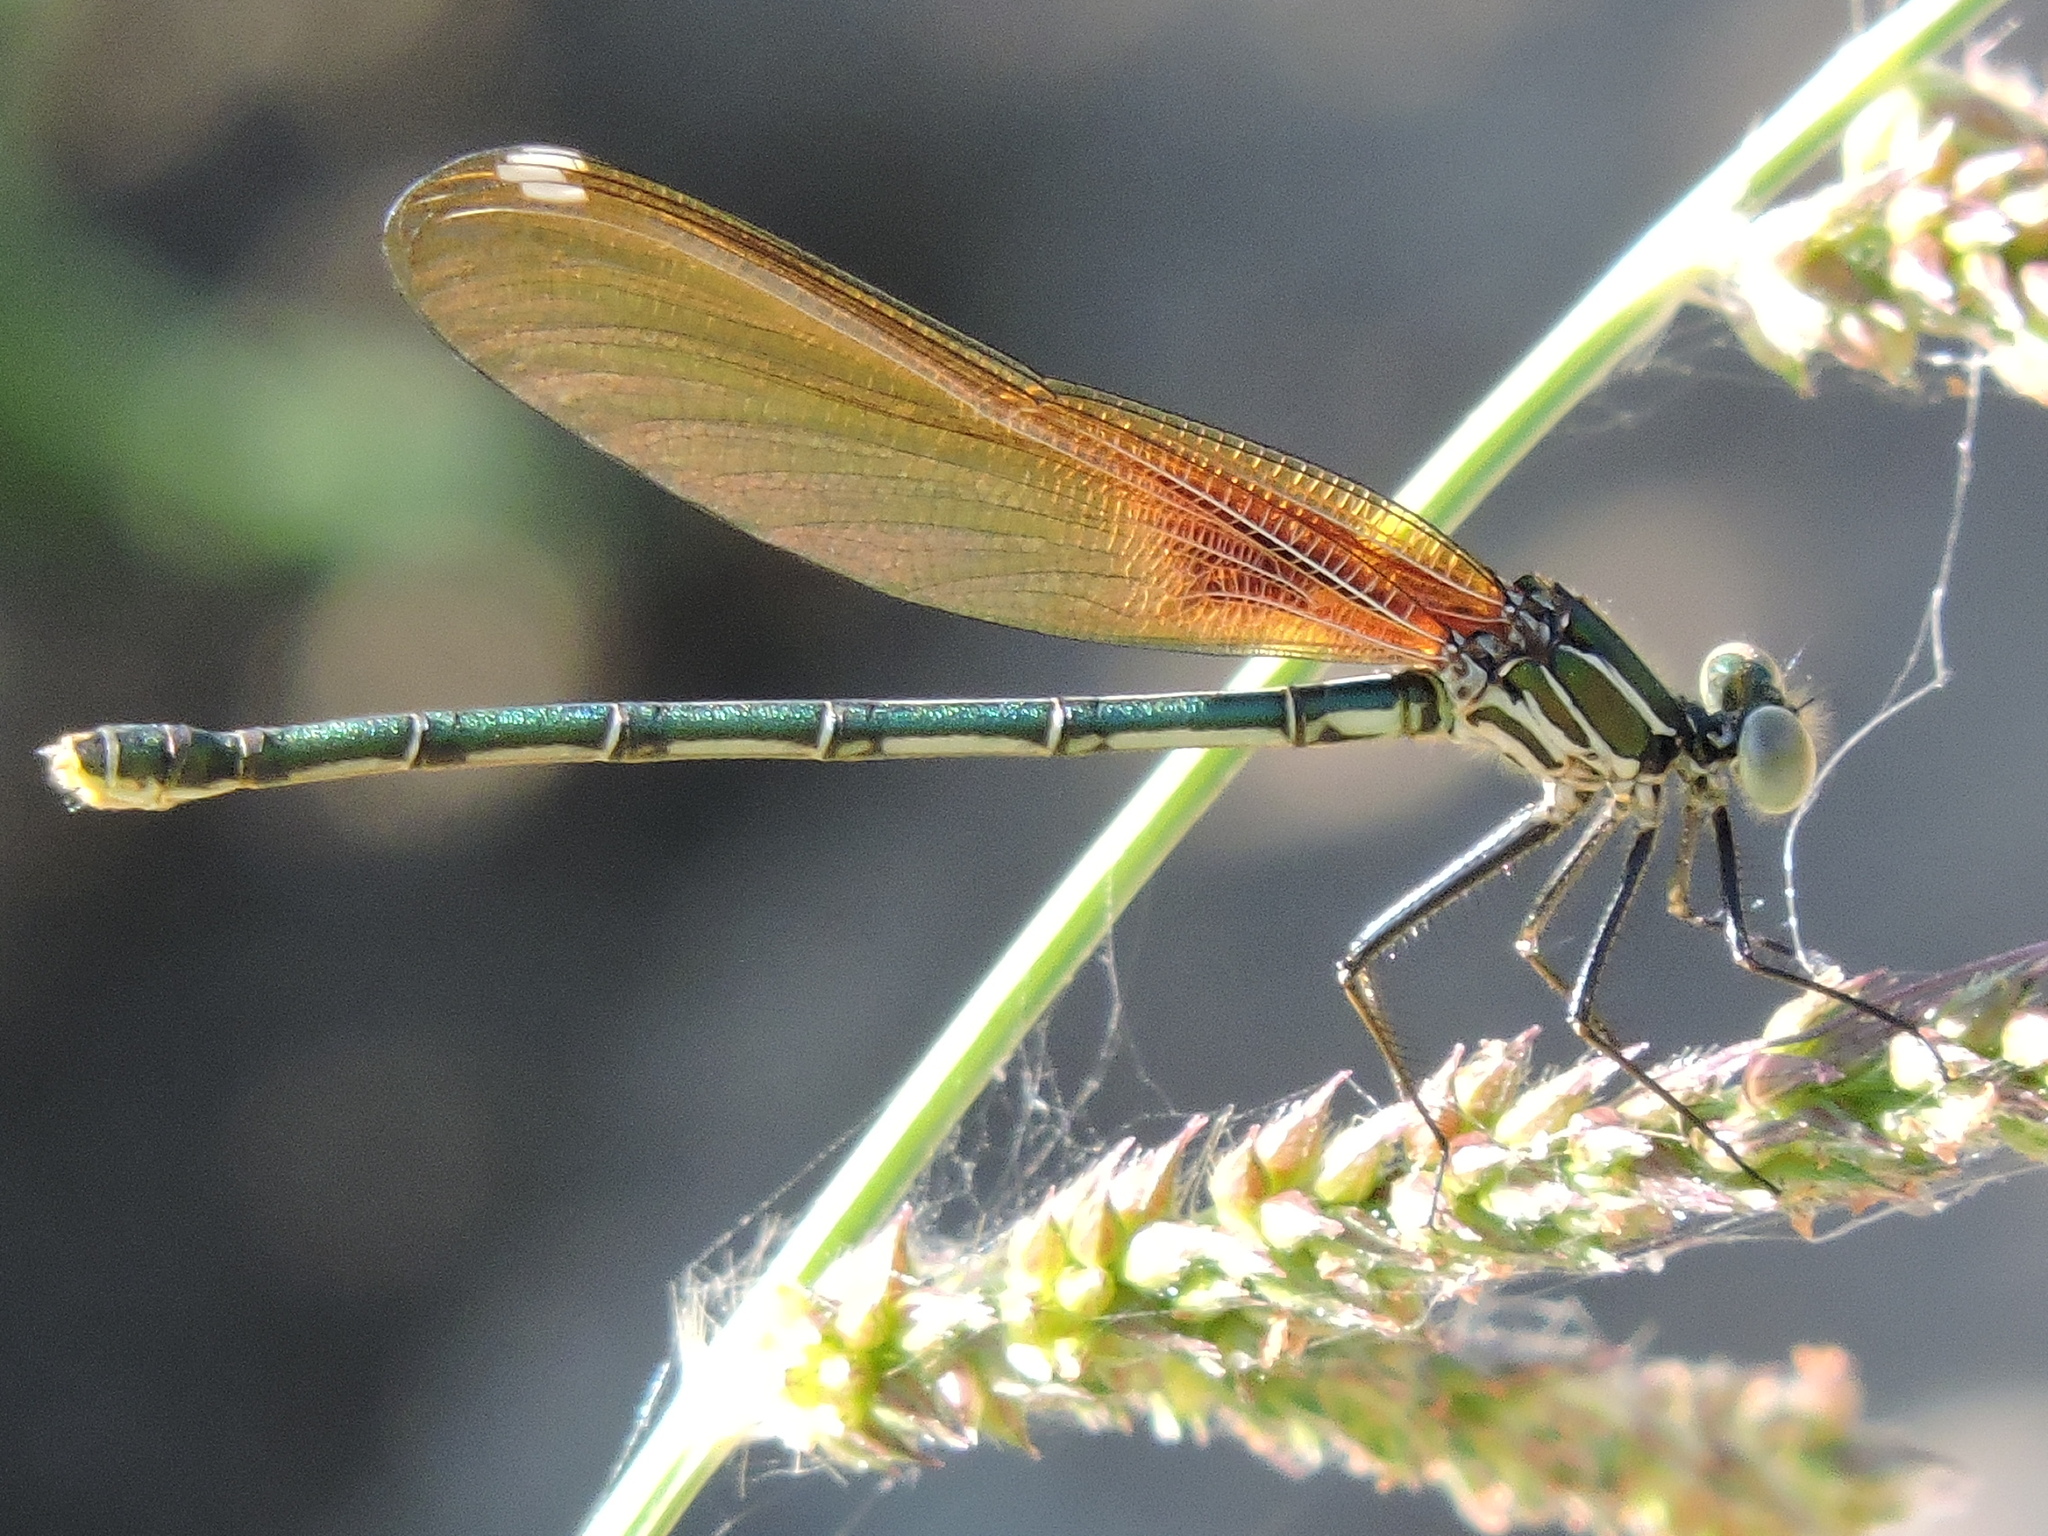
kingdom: Animalia
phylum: Arthropoda
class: Insecta
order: Odonata
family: Calopterygidae
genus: Hetaerina
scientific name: Hetaerina americana
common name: American rubyspot
